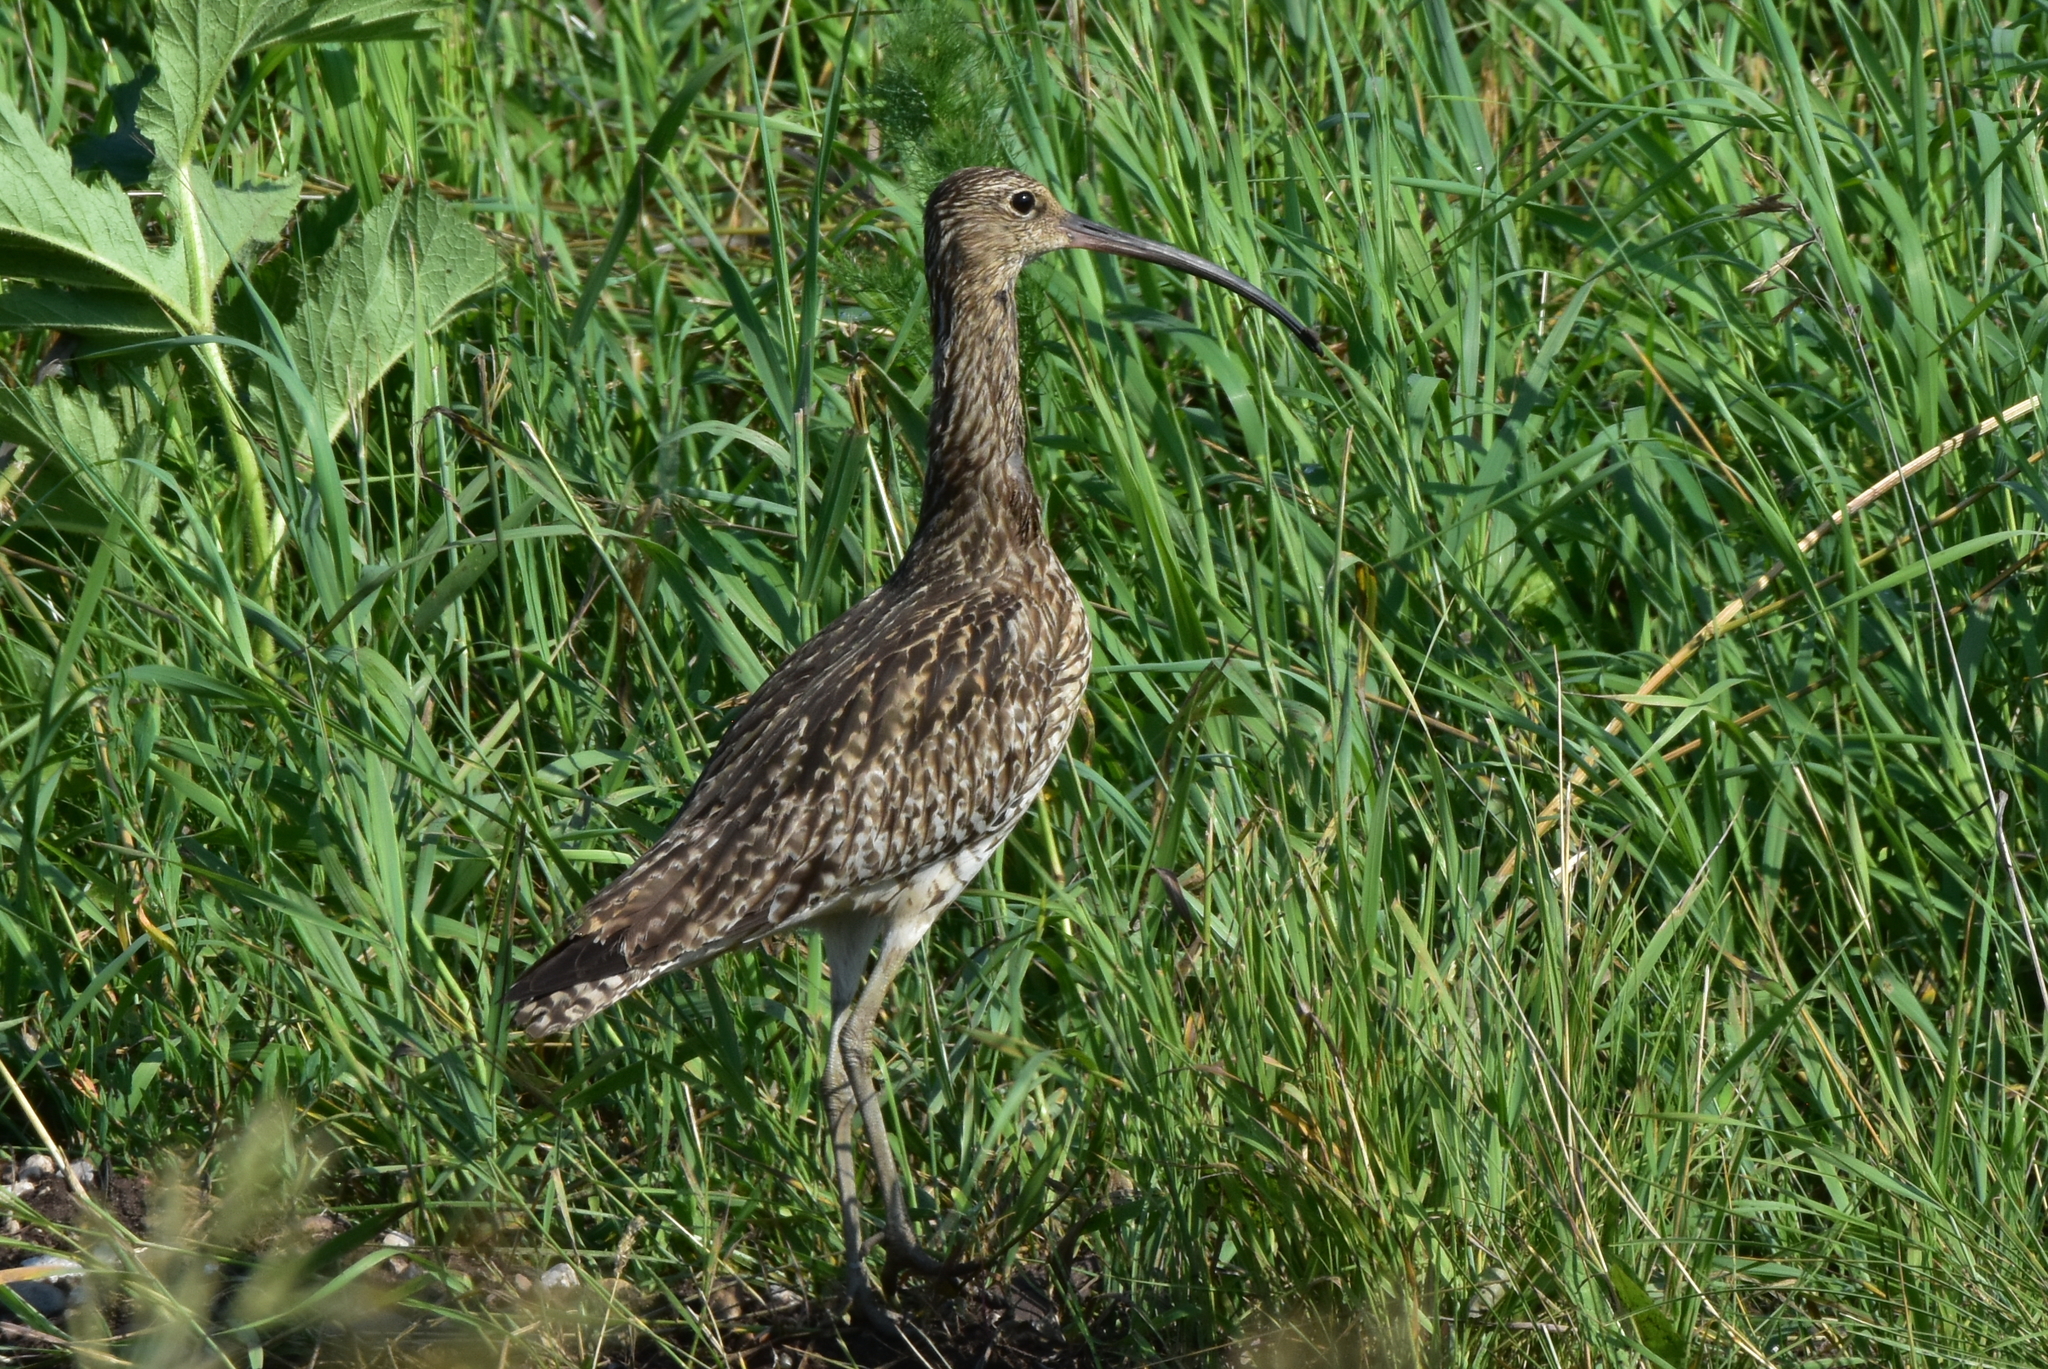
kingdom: Animalia
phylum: Chordata
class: Aves
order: Charadriiformes
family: Scolopacidae
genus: Numenius
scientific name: Numenius arquata
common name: Eurasian curlew
